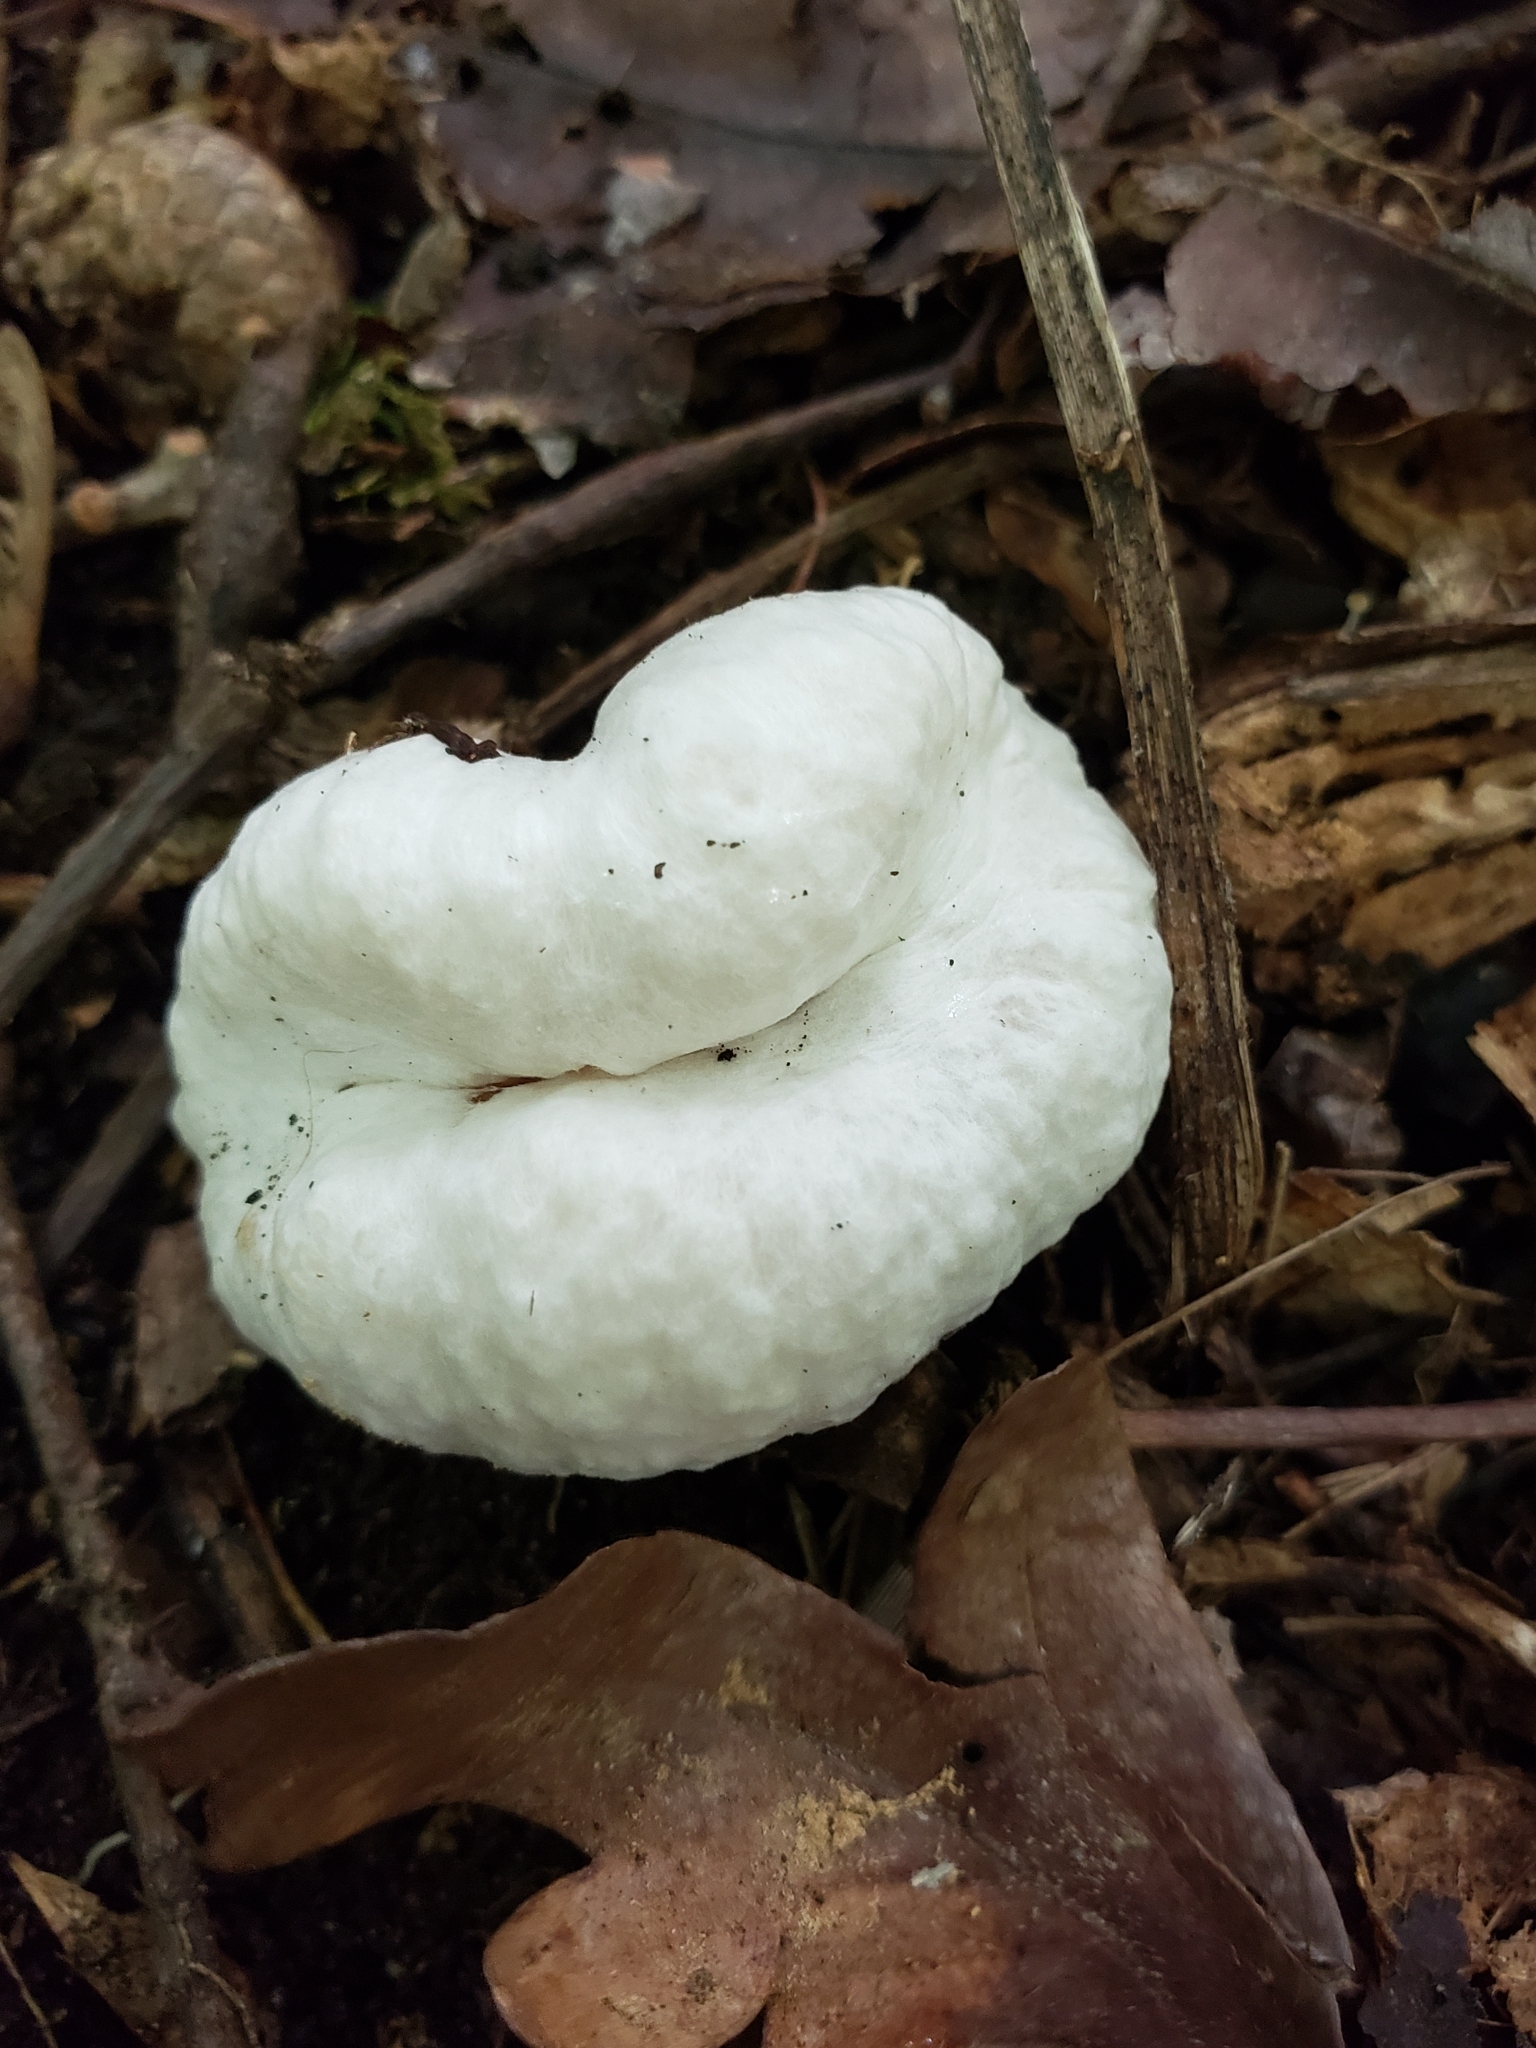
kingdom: Fungi
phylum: Basidiomycota
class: Agaricomycetes
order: Agaricales
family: Entolomataceae
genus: Entoloma
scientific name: Entoloma abortivum
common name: Aborted entoloma
